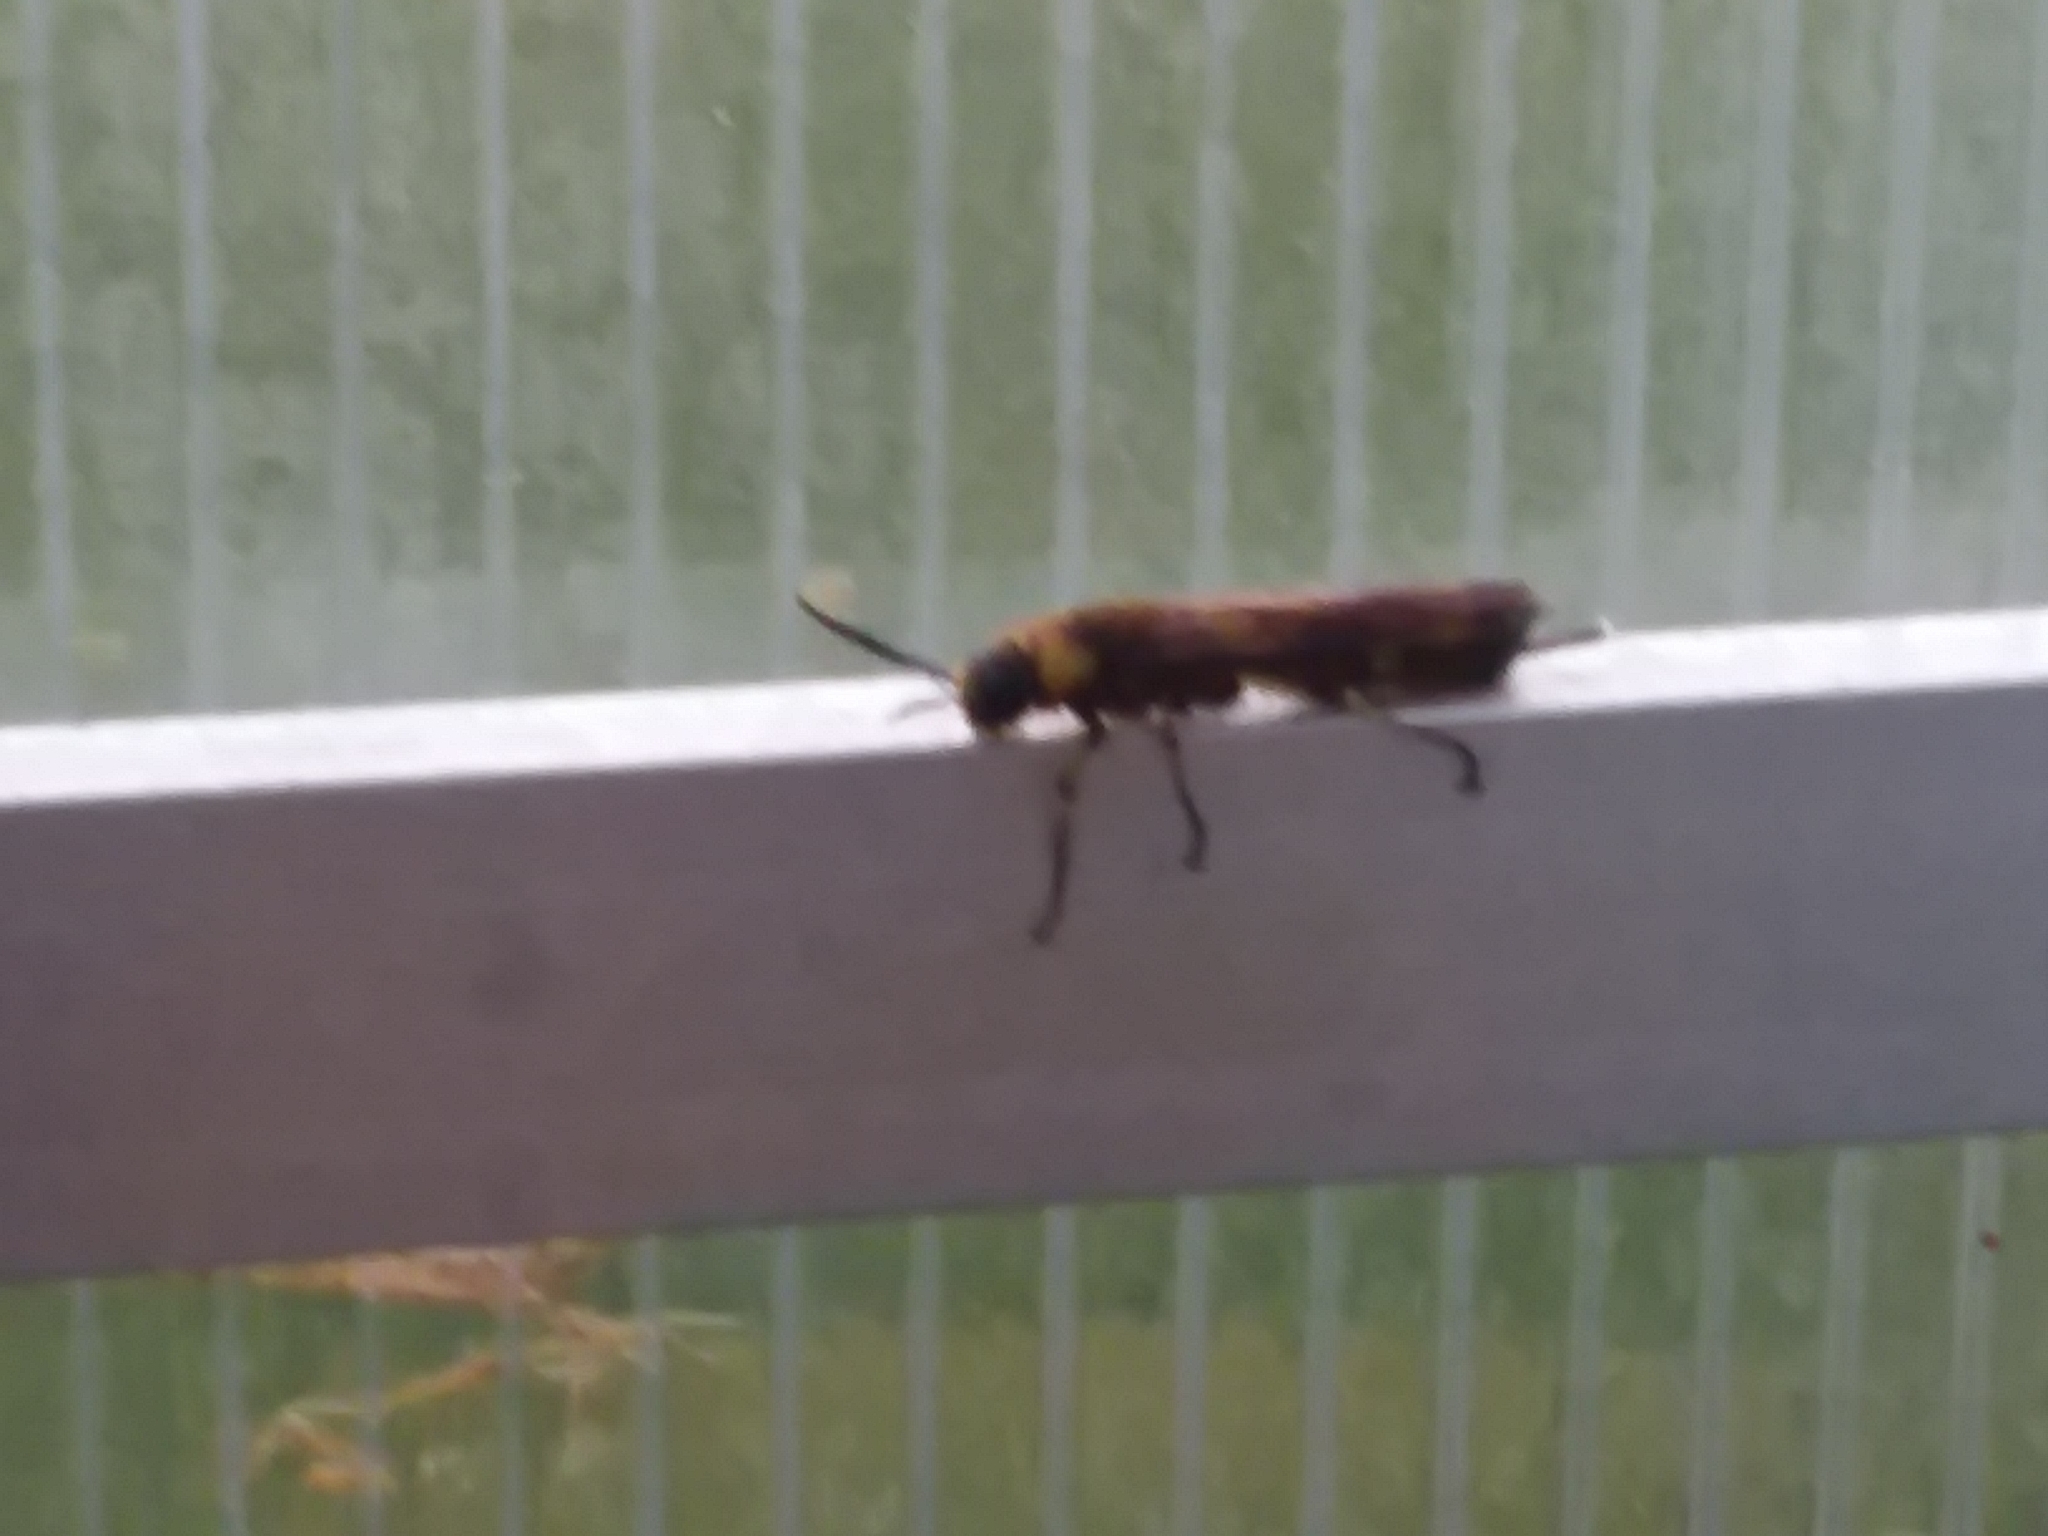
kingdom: Animalia
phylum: Arthropoda
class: Insecta
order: Hymenoptera
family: Siricidae
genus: Eriotremex
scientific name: Eriotremex formosanus
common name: Asian horntail
